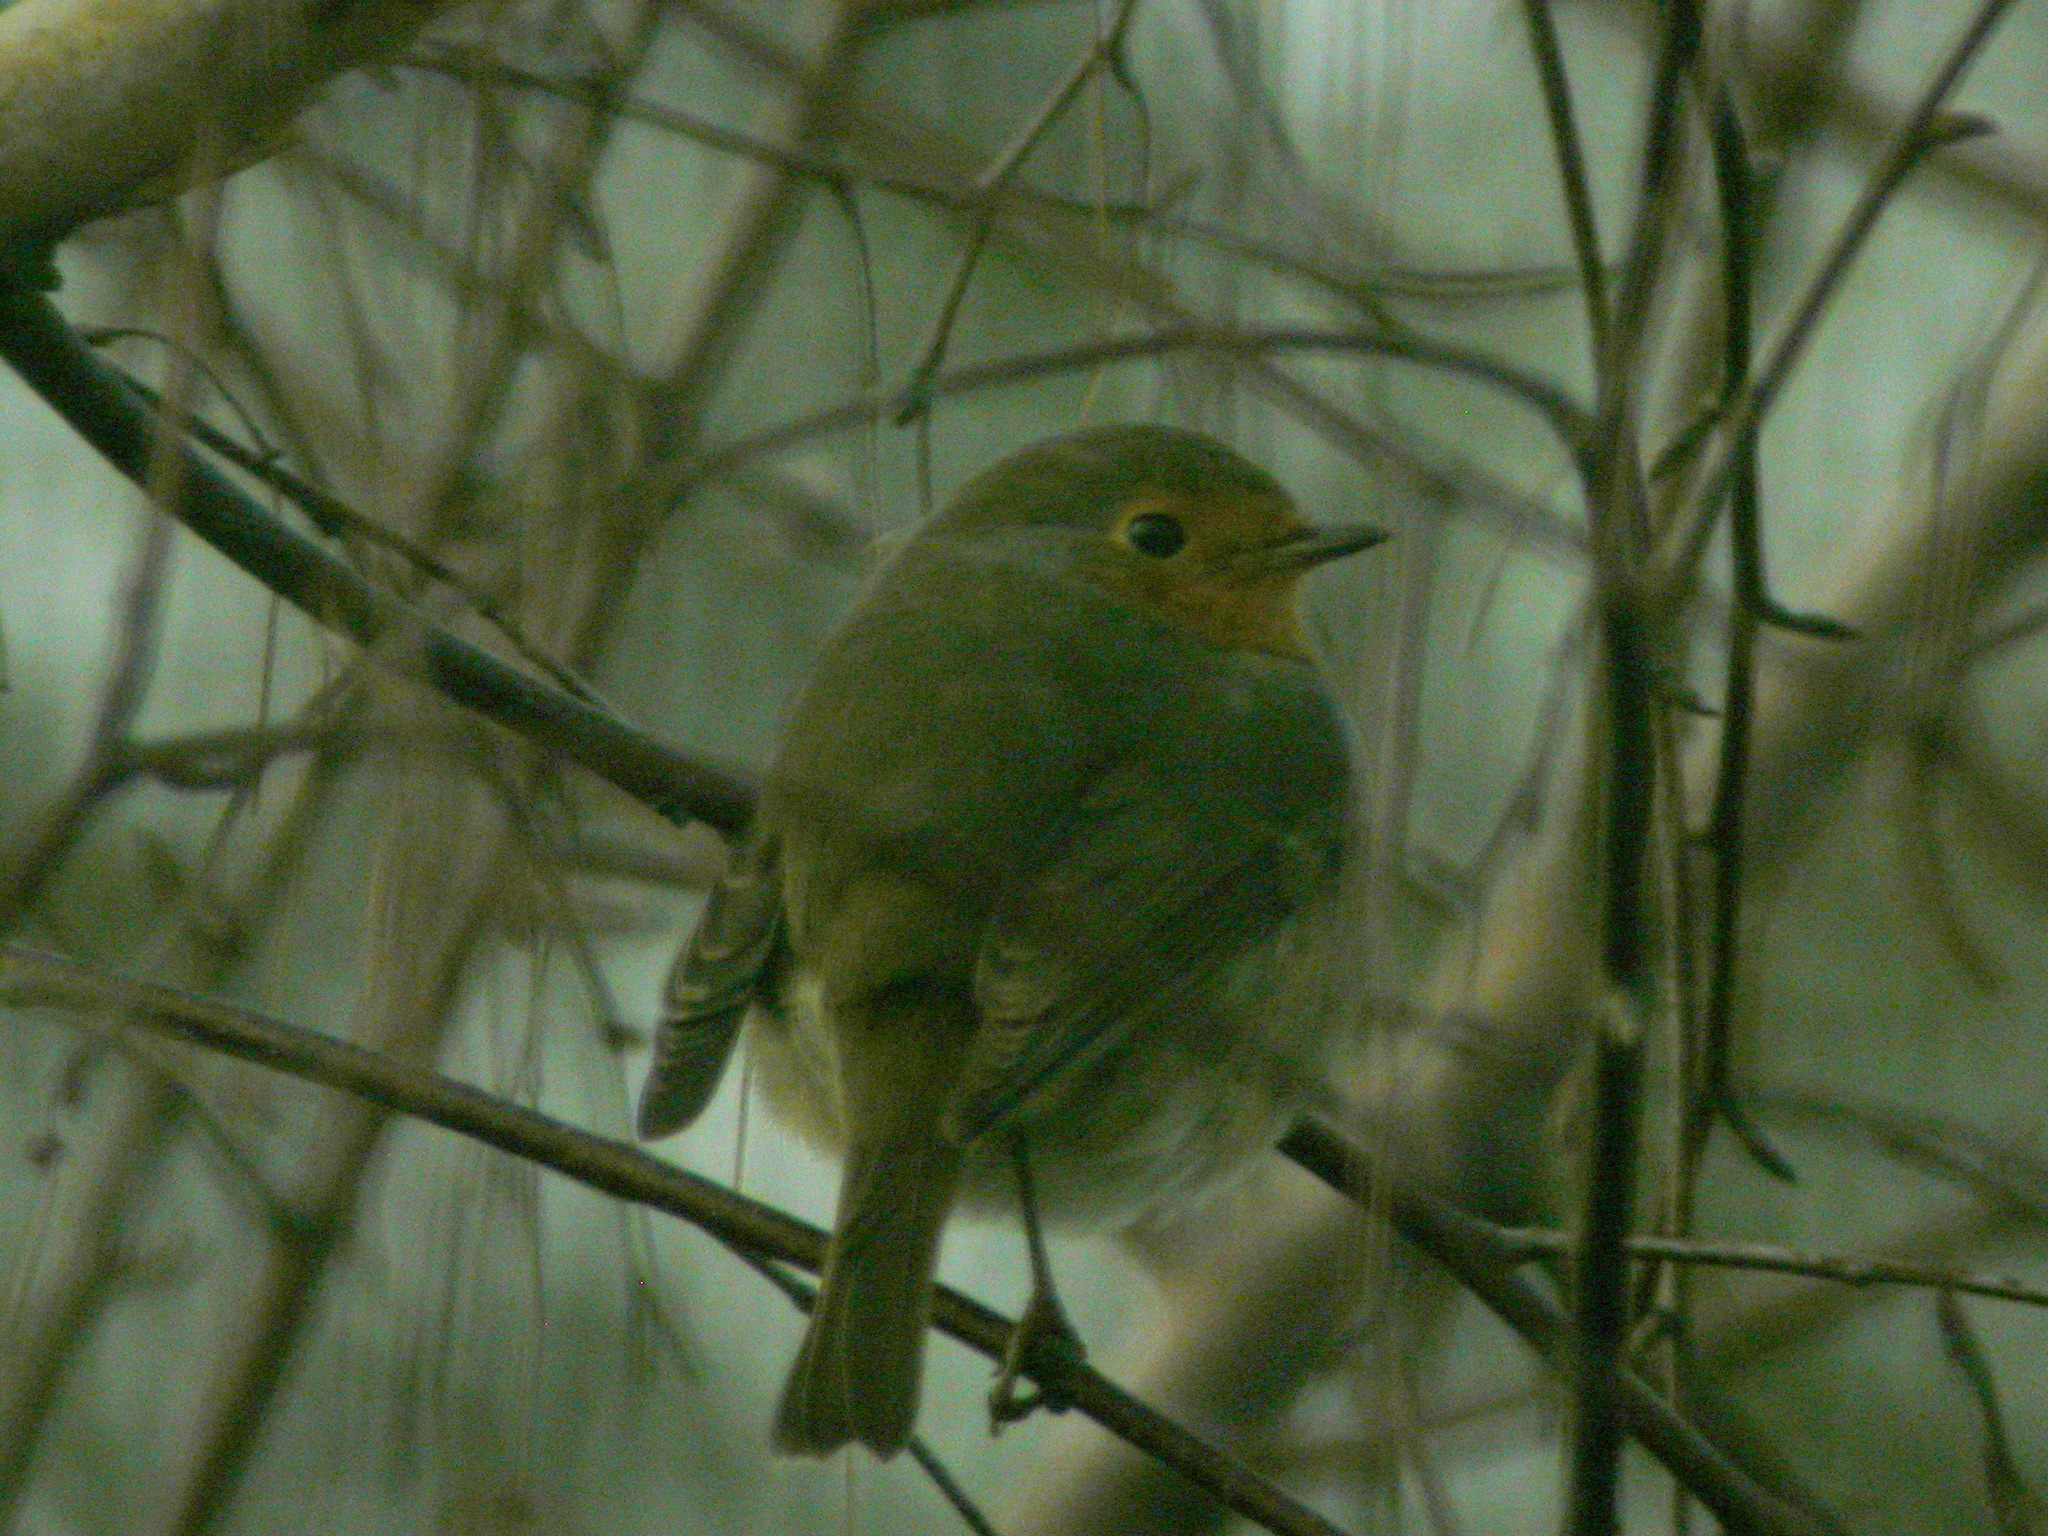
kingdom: Animalia
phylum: Chordata
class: Aves
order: Passeriformes
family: Muscicapidae
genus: Erithacus
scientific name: Erithacus rubecula
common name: European robin
